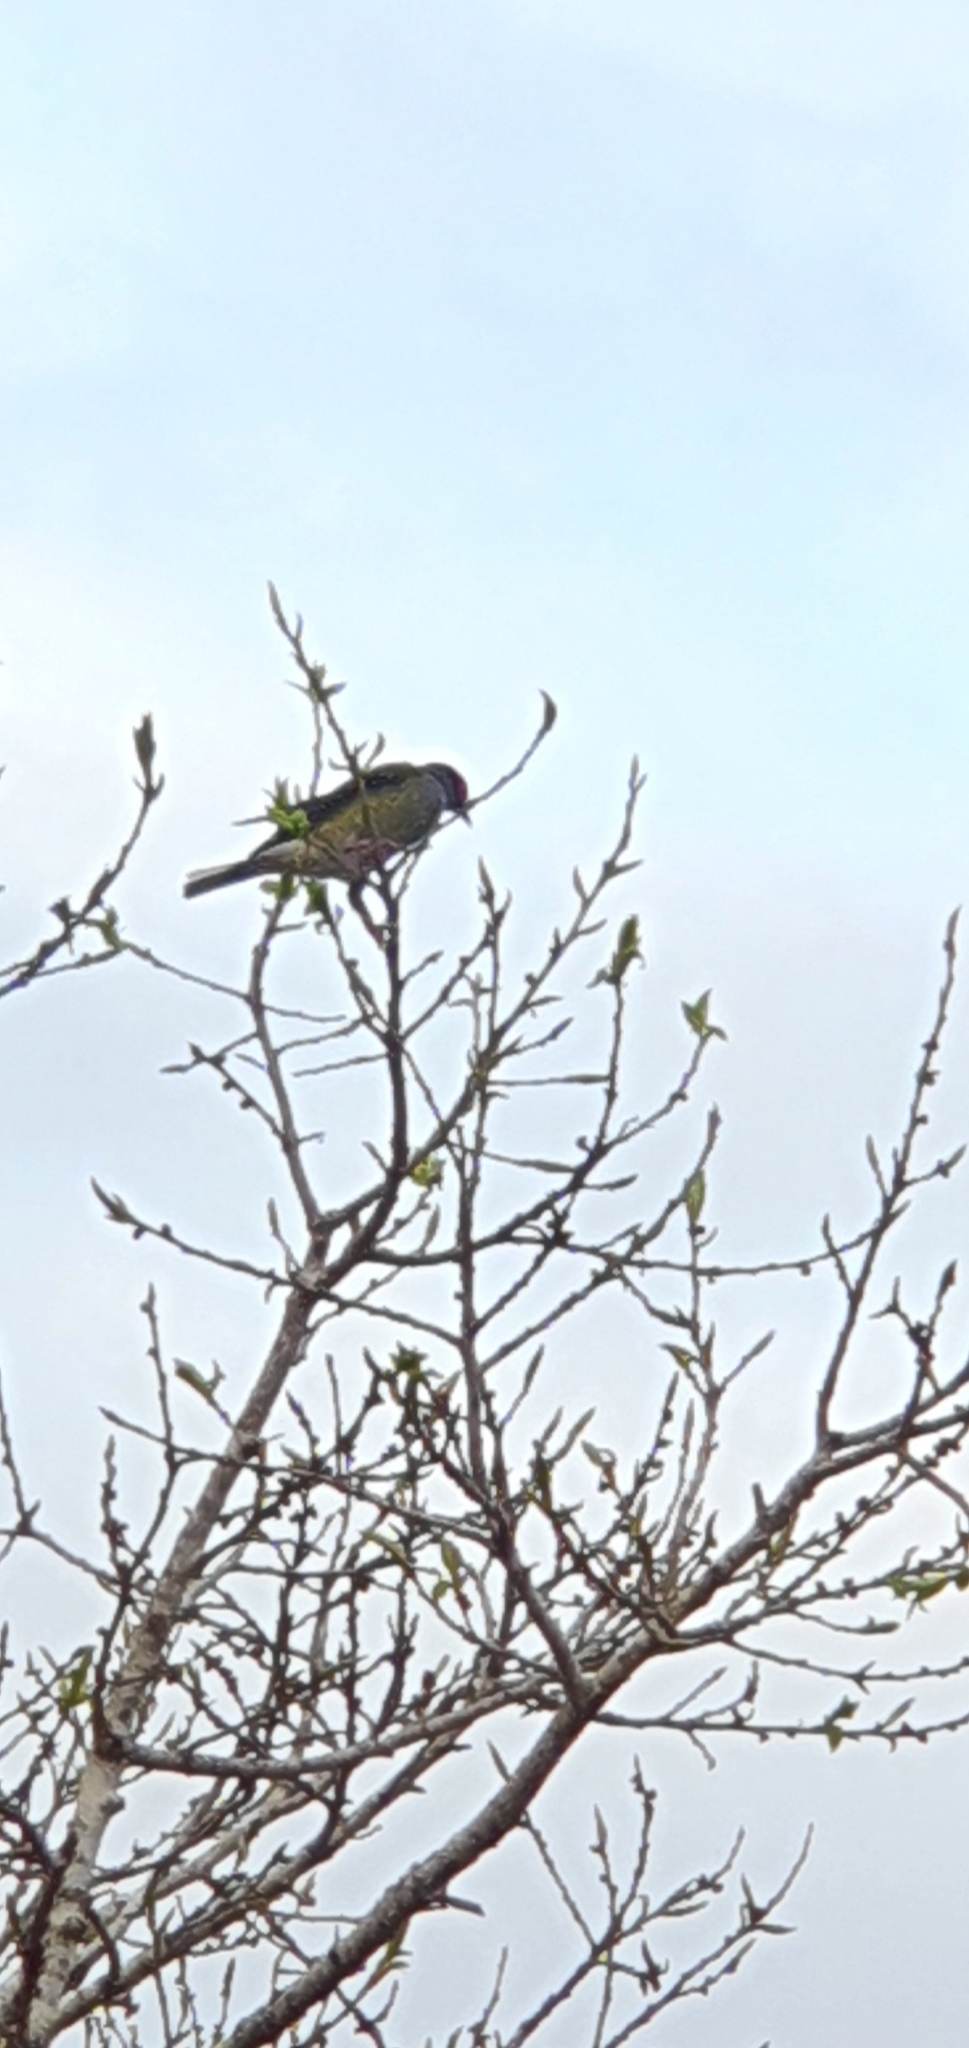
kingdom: Animalia
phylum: Chordata
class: Aves
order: Passeriformes
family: Oriolidae
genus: Sphecotheres
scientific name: Sphecotheres vieilloti
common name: Australasian figbird
